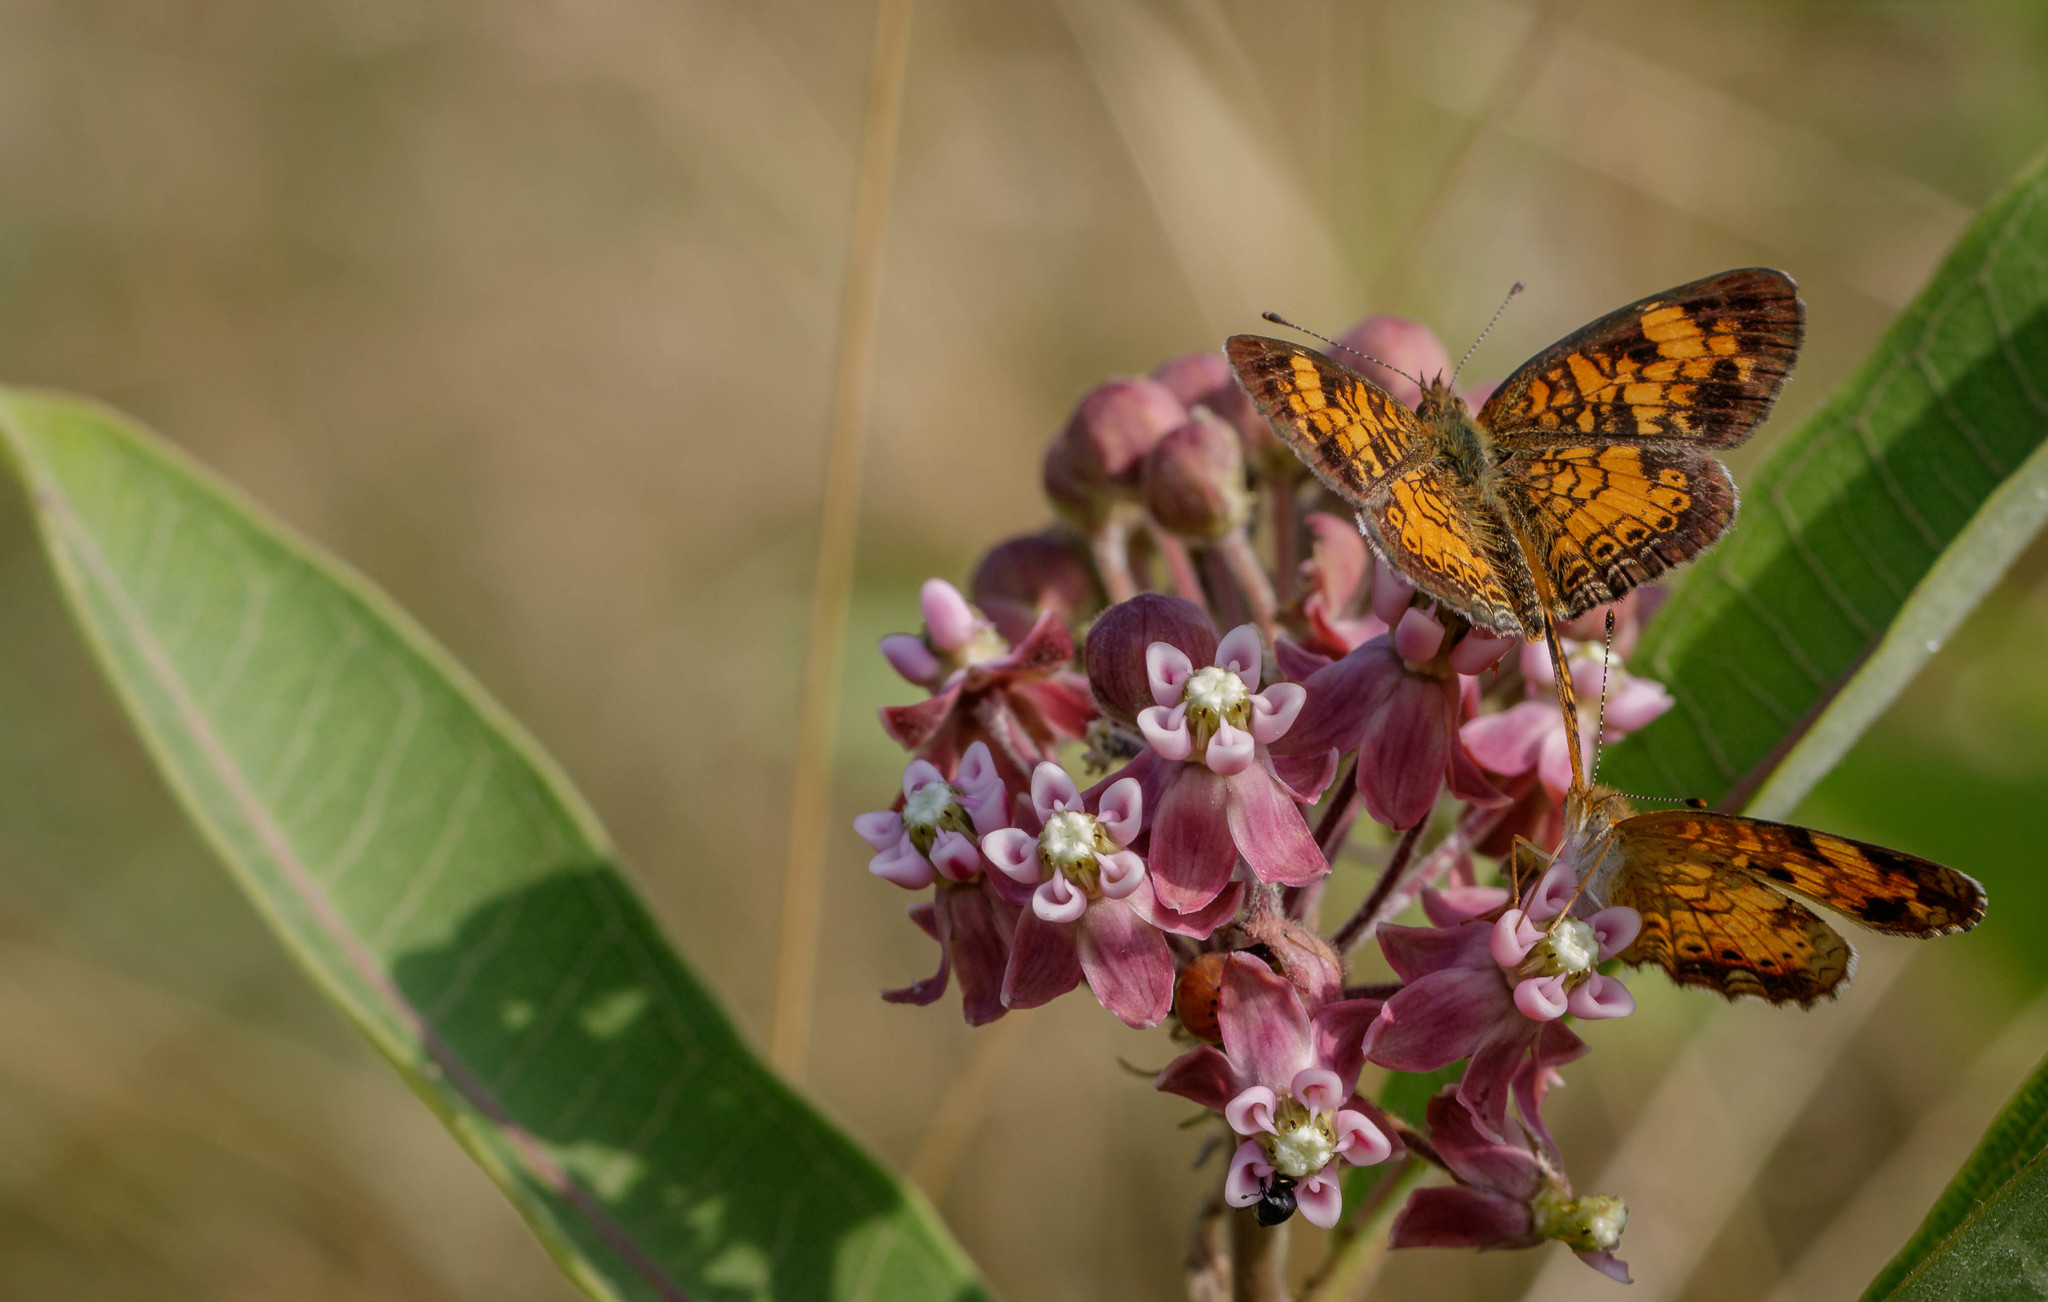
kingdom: Animalia
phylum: Arthropoda
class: Insecta
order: Lepidoptera
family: Nymphalidae
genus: Phyciodes
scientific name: Phyciodes tharos
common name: Pearl crescent
